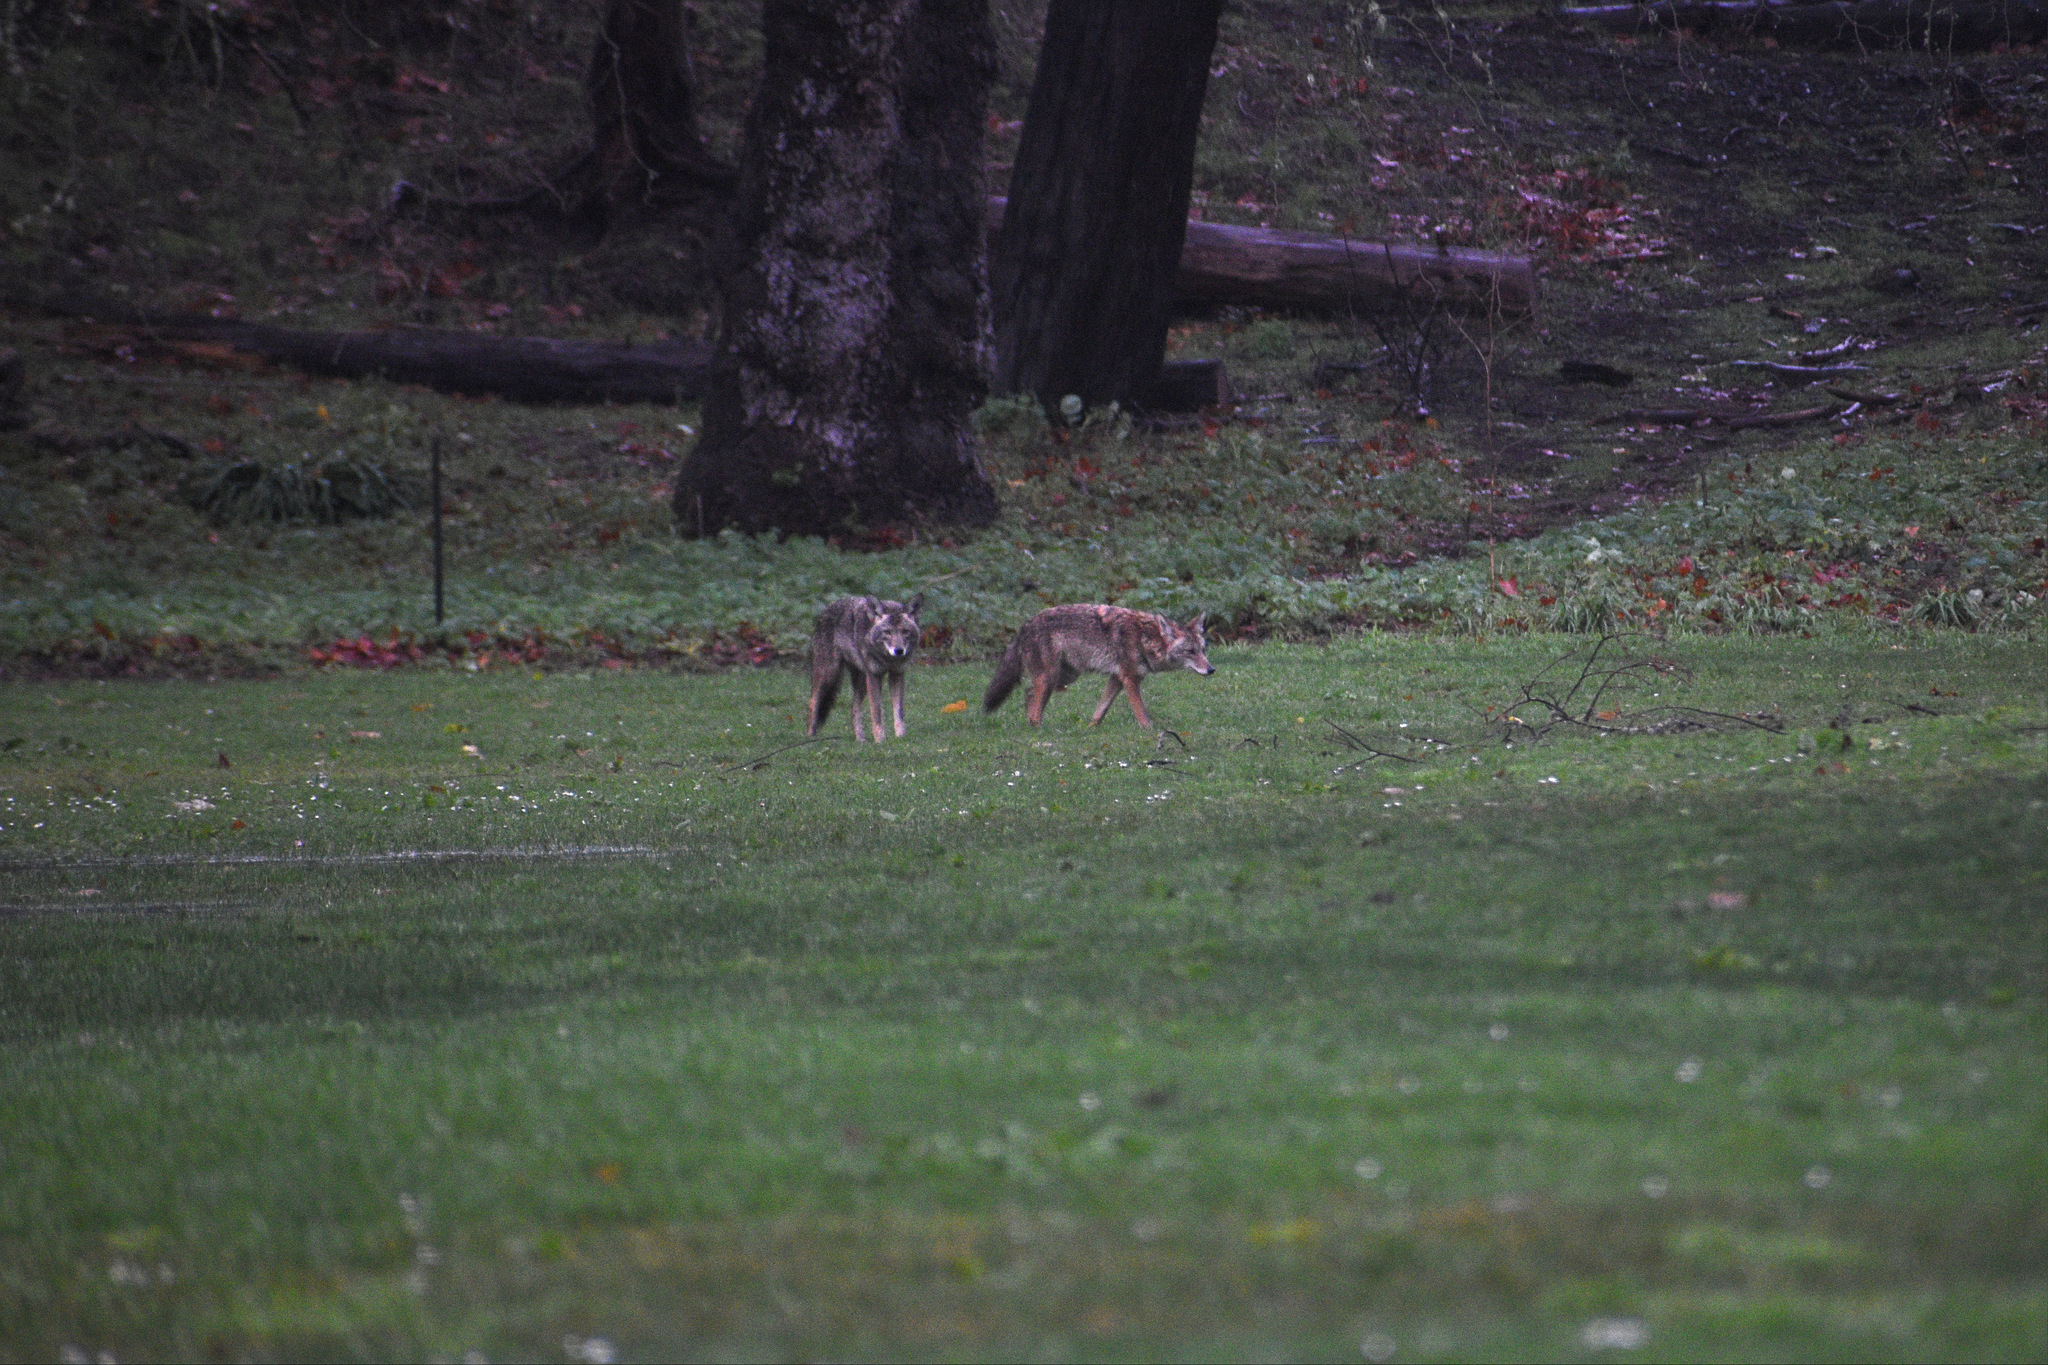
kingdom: Animalia
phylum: Chordata
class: Mammalia
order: Carnivora
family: Canidae
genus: Canis
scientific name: Canis latrans
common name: Coyote
